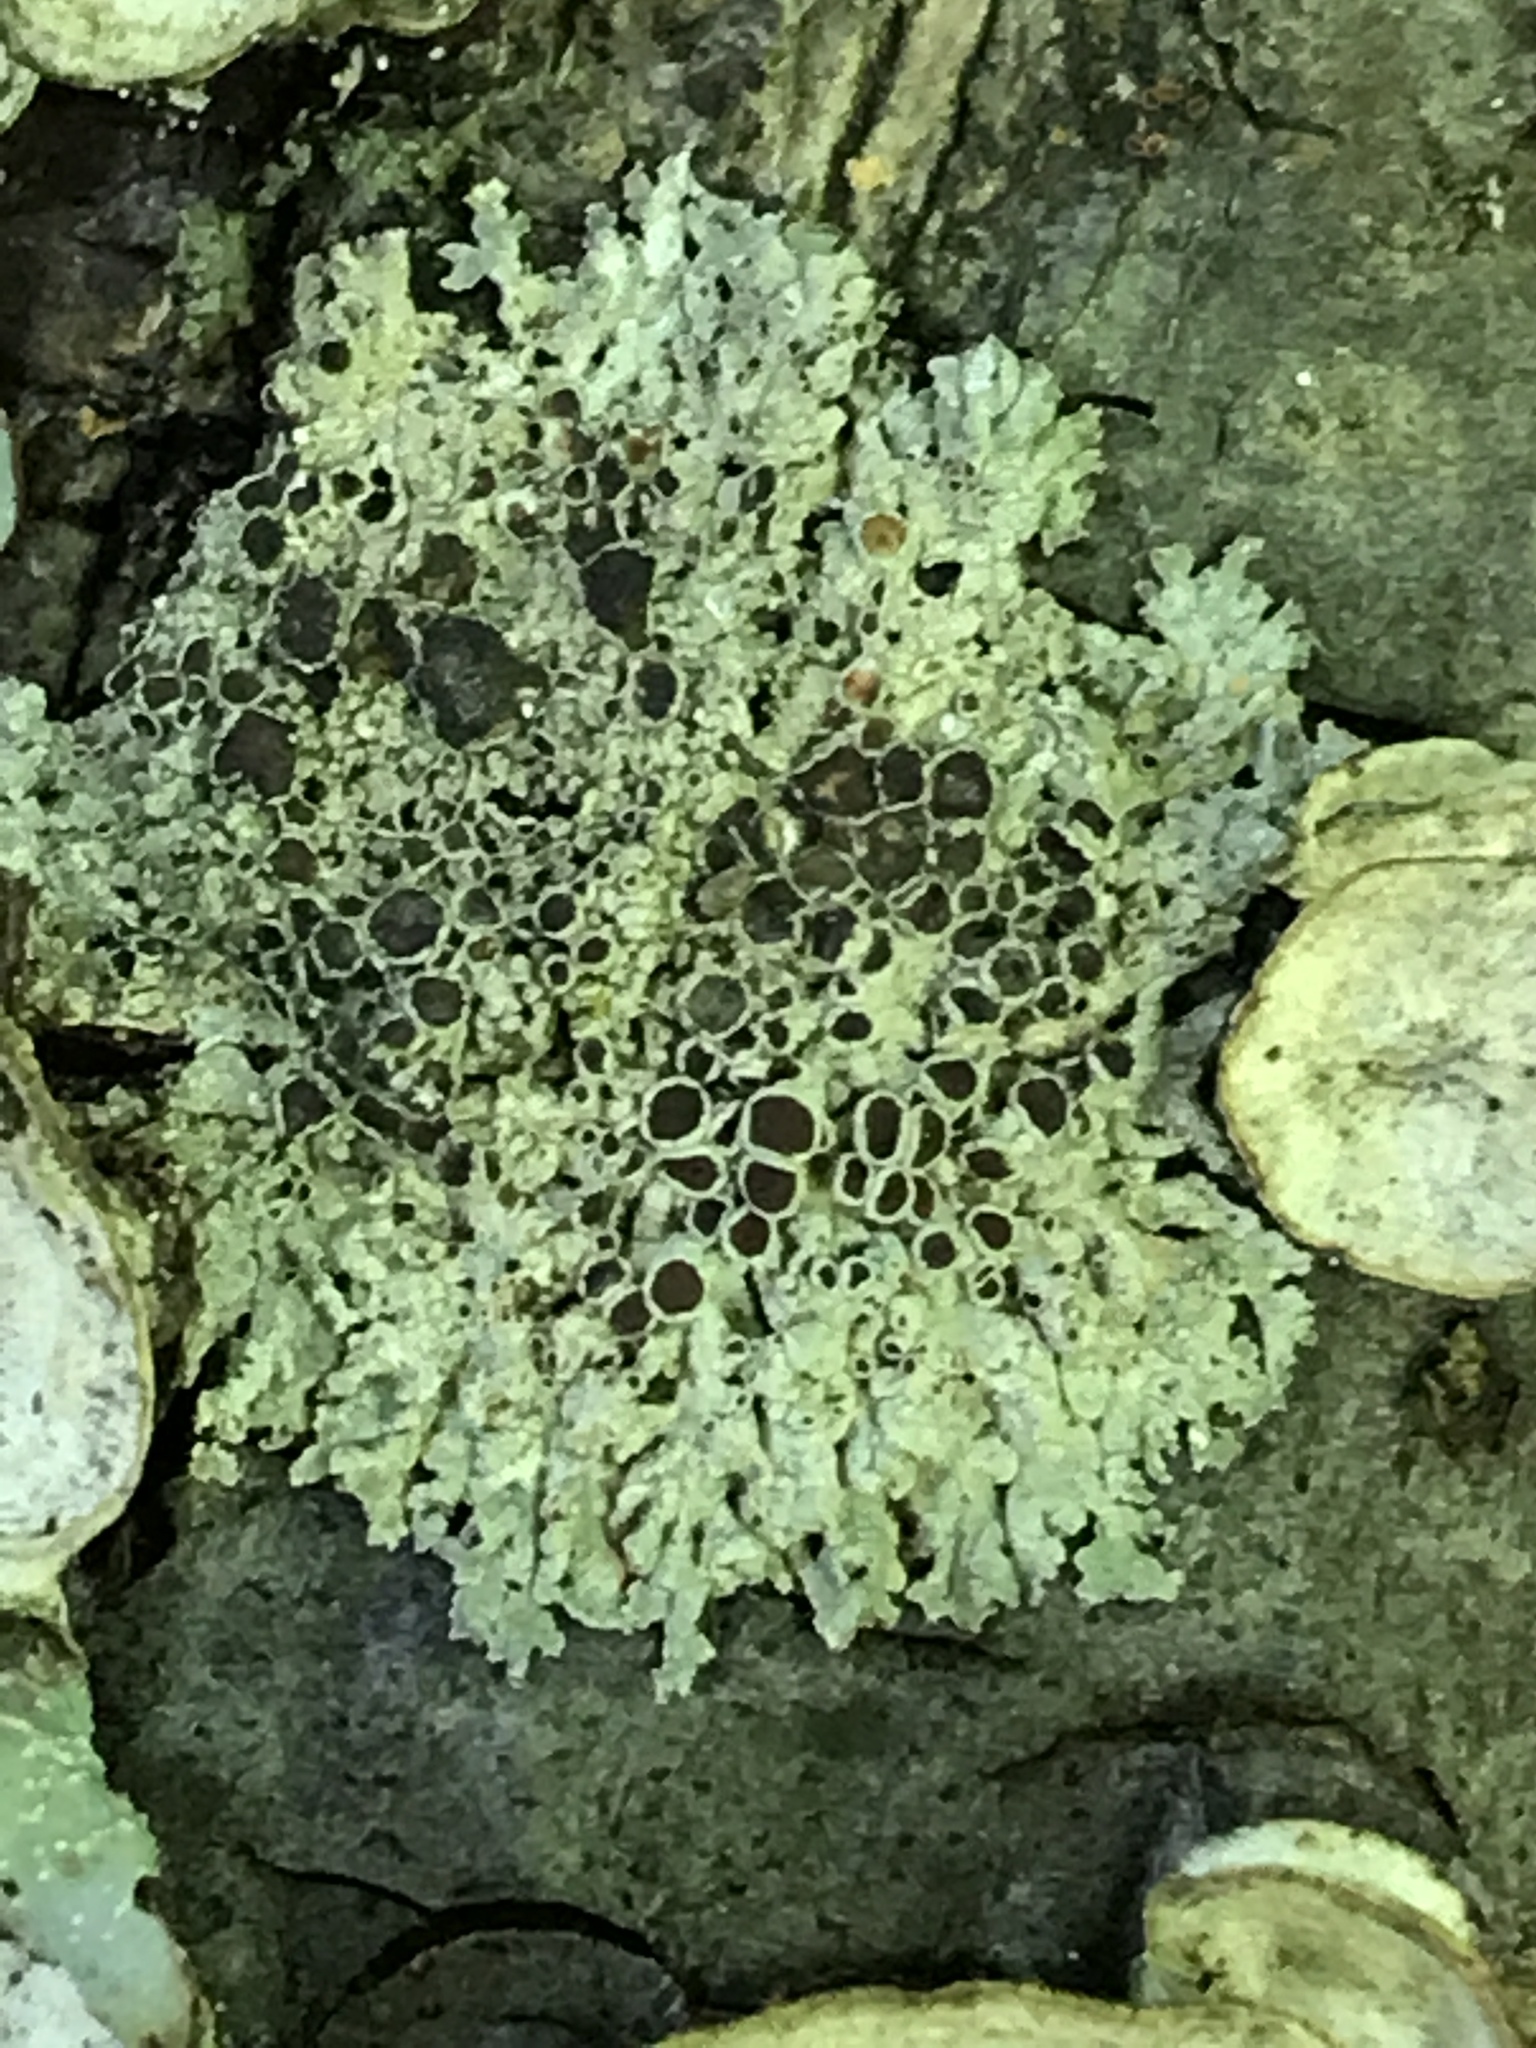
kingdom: Fungi
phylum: Ascomycota
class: Lecanoromycetes
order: Caliciales
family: Physciaceae
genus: Physcia
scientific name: Physcia stellaris
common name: Star rosette lichen
